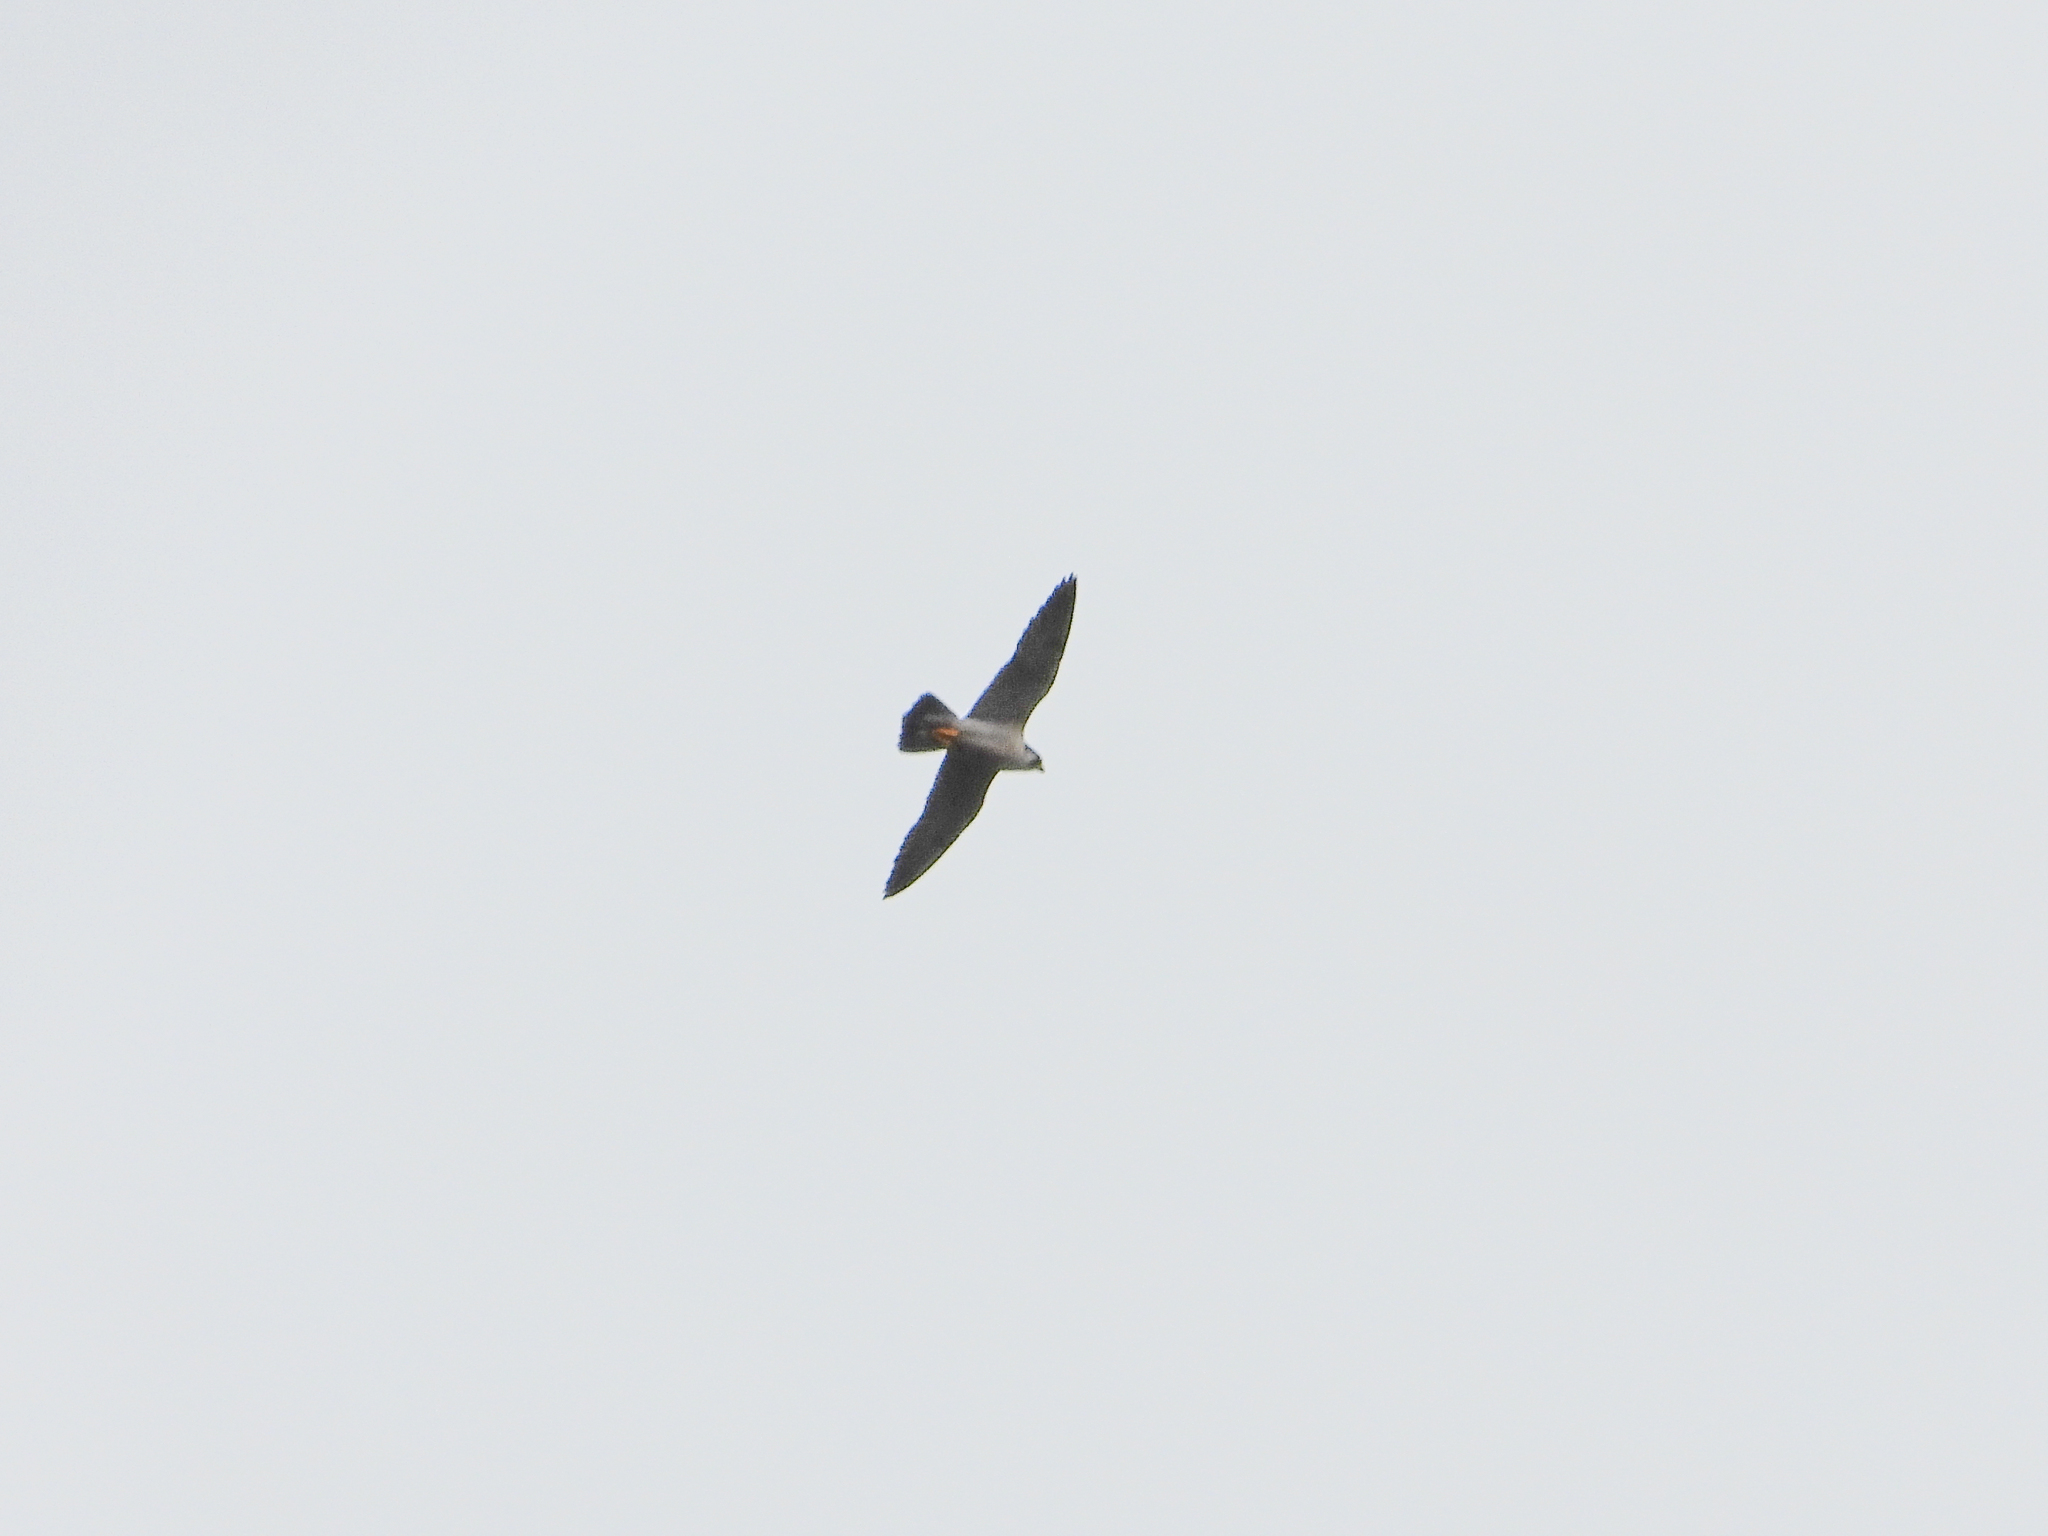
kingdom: Animalia
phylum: Chordata
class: Aves
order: Falconiformes
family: Falconidae
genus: Falco
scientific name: Falco peregrinus
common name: Peregrine falcon
